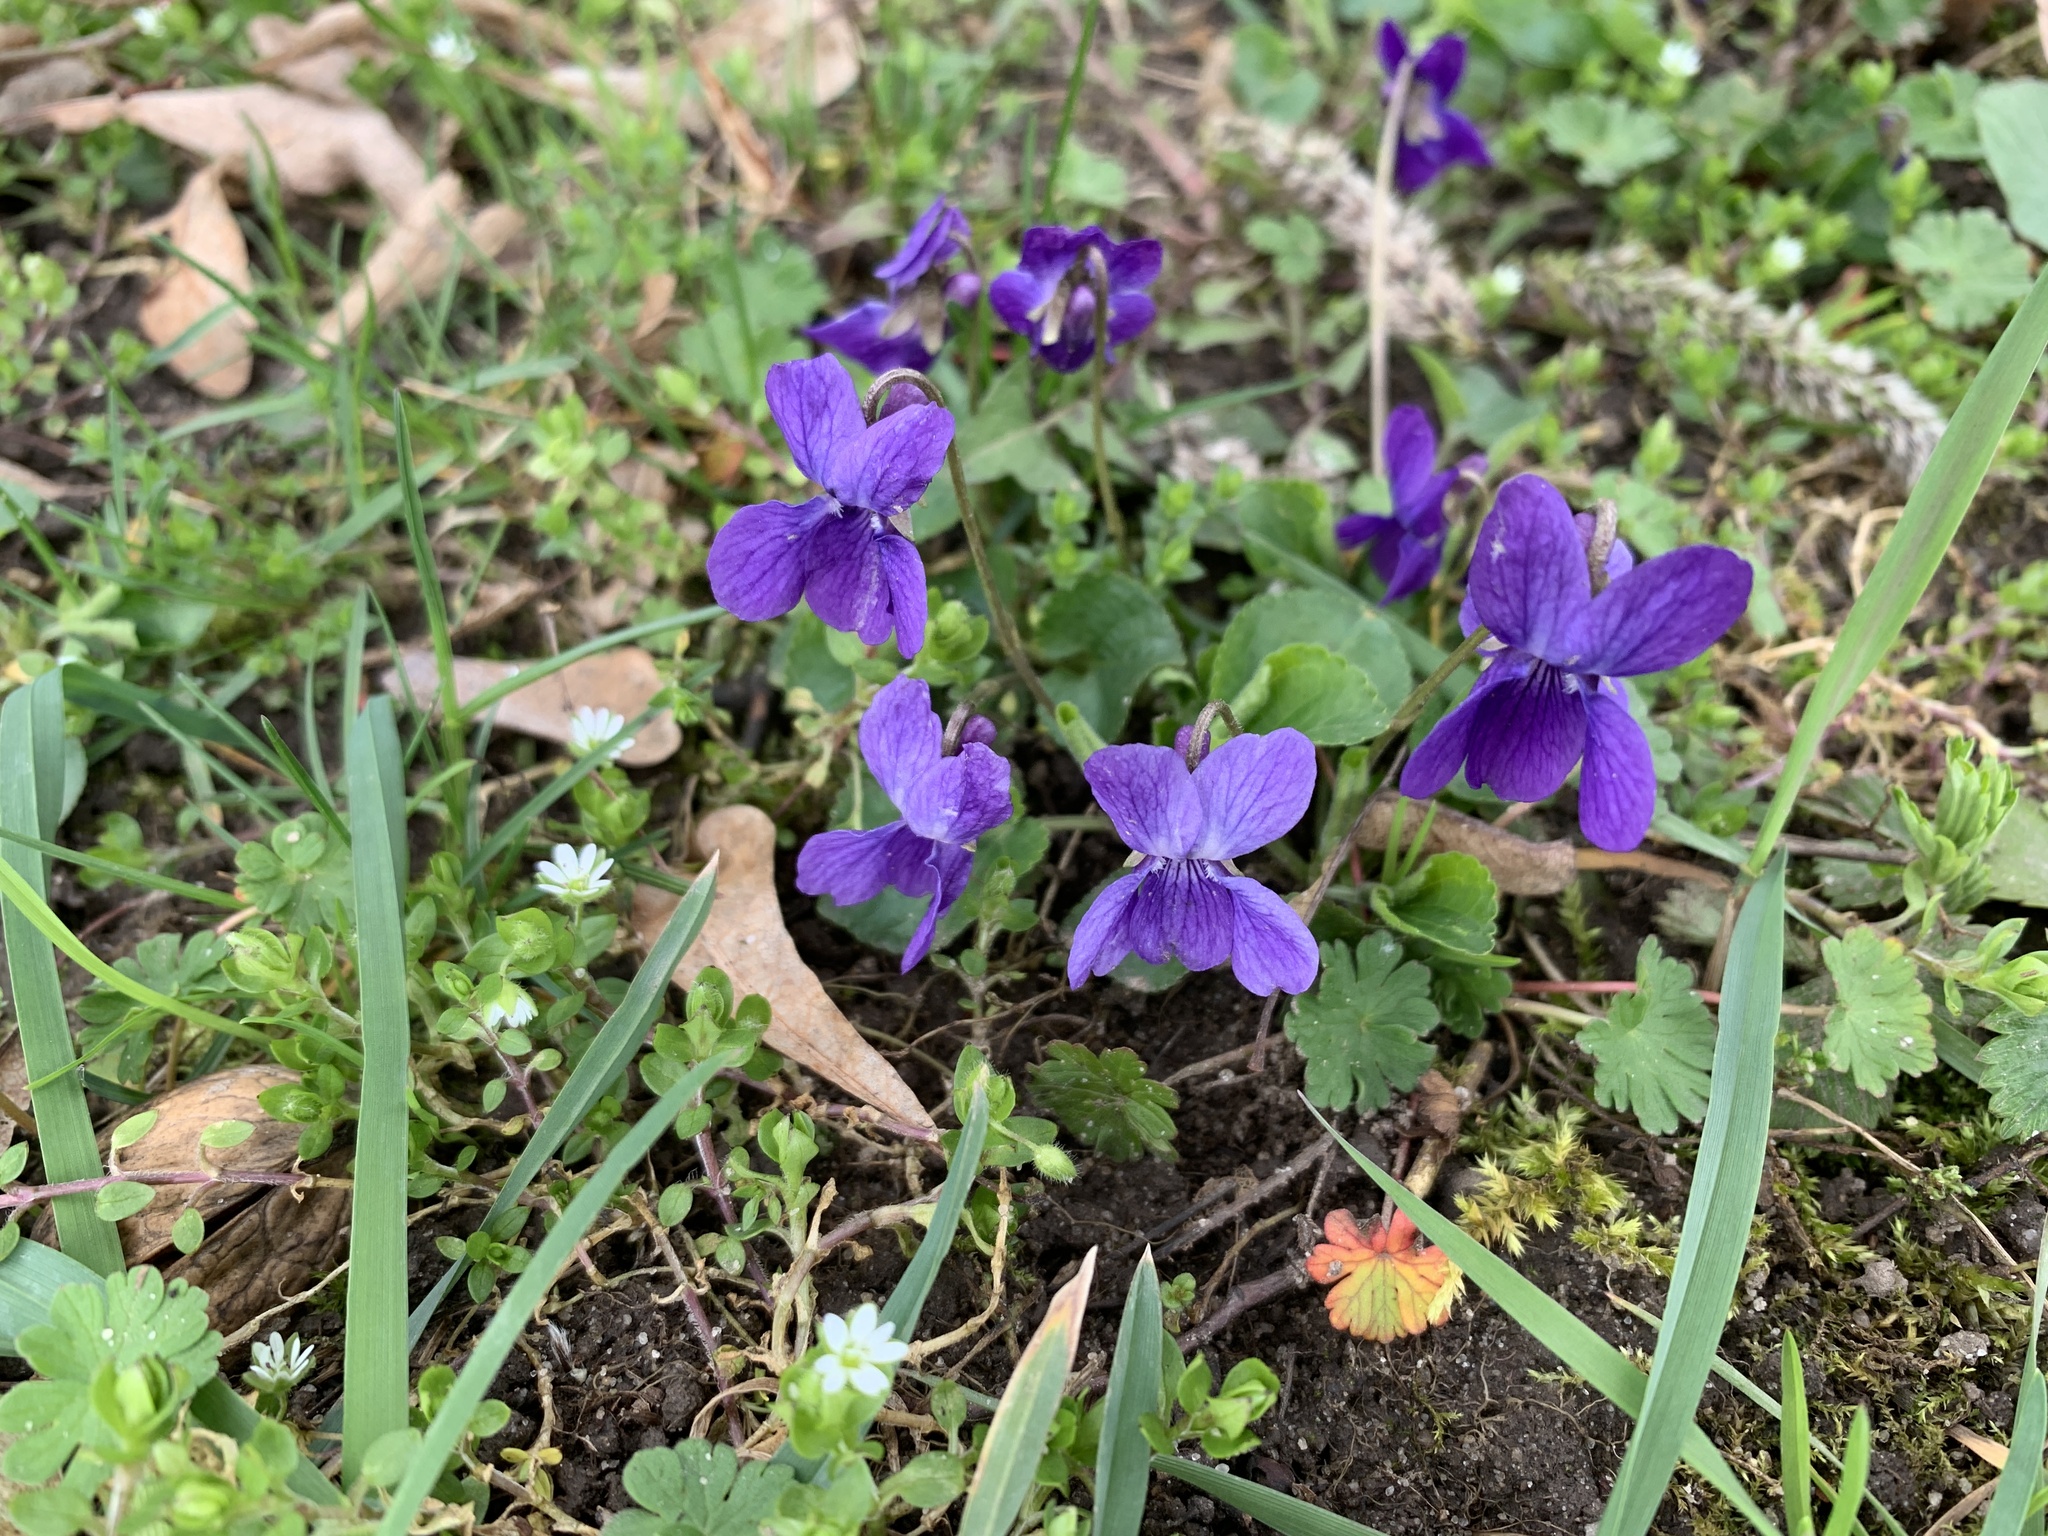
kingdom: Plantae
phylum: Tracheophyta
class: Magnoliopsida
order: Malpighiales
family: Violaceae
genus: Viola
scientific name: Viola odorata
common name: Sweet violet
